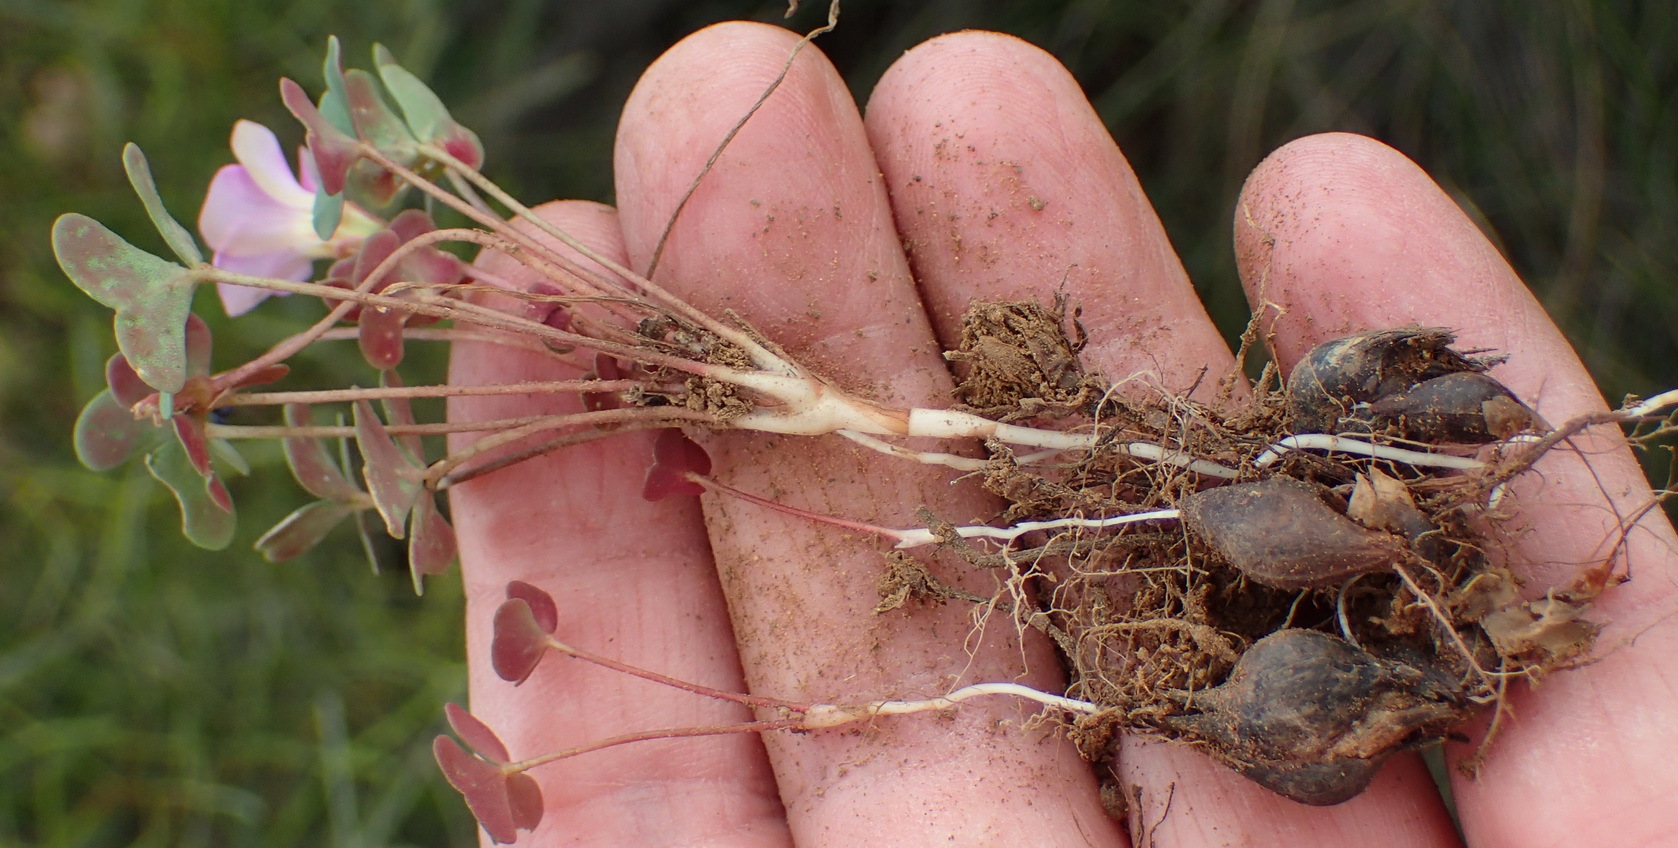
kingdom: Plantae
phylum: Tracheophyta
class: Magnoliopsida
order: Oxalidales
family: Oxalidaceae
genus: Oxalis
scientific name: Oxalis obliquifolia
